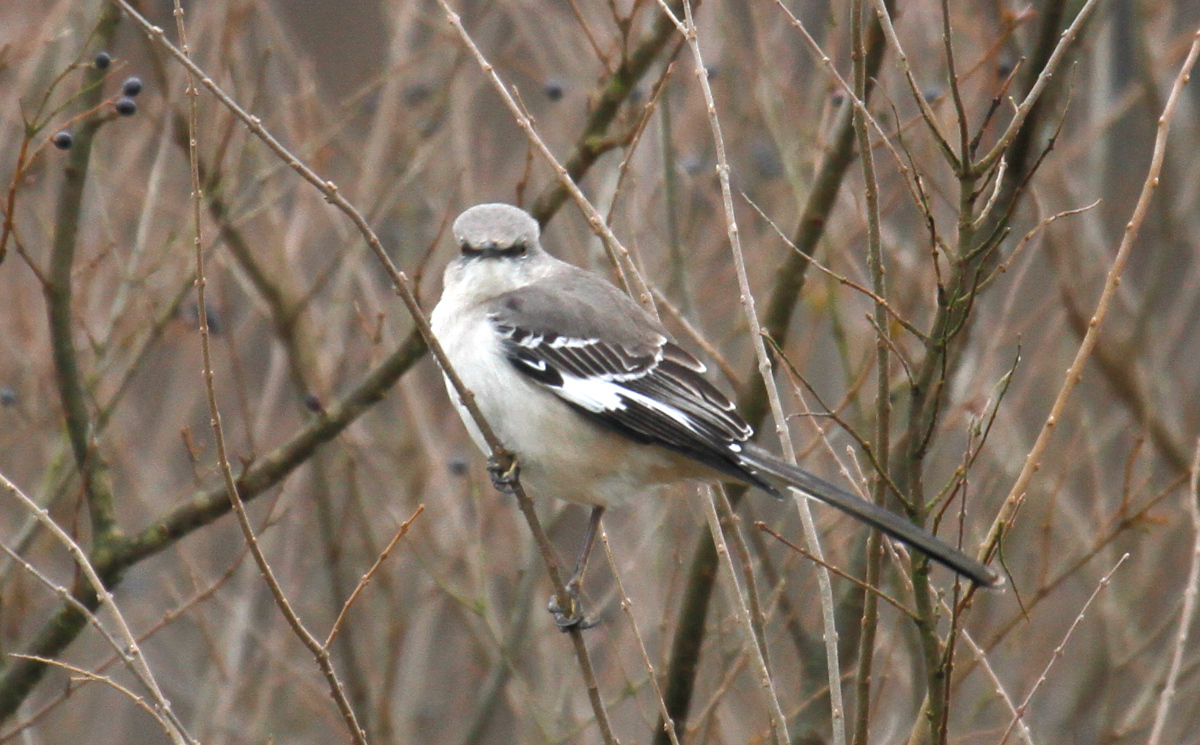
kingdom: Animalia
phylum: Chordata
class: Aves
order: Passeriformes
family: Mimidae
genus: Mimus
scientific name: Mimus polyglottos
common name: Northern mockingbird
